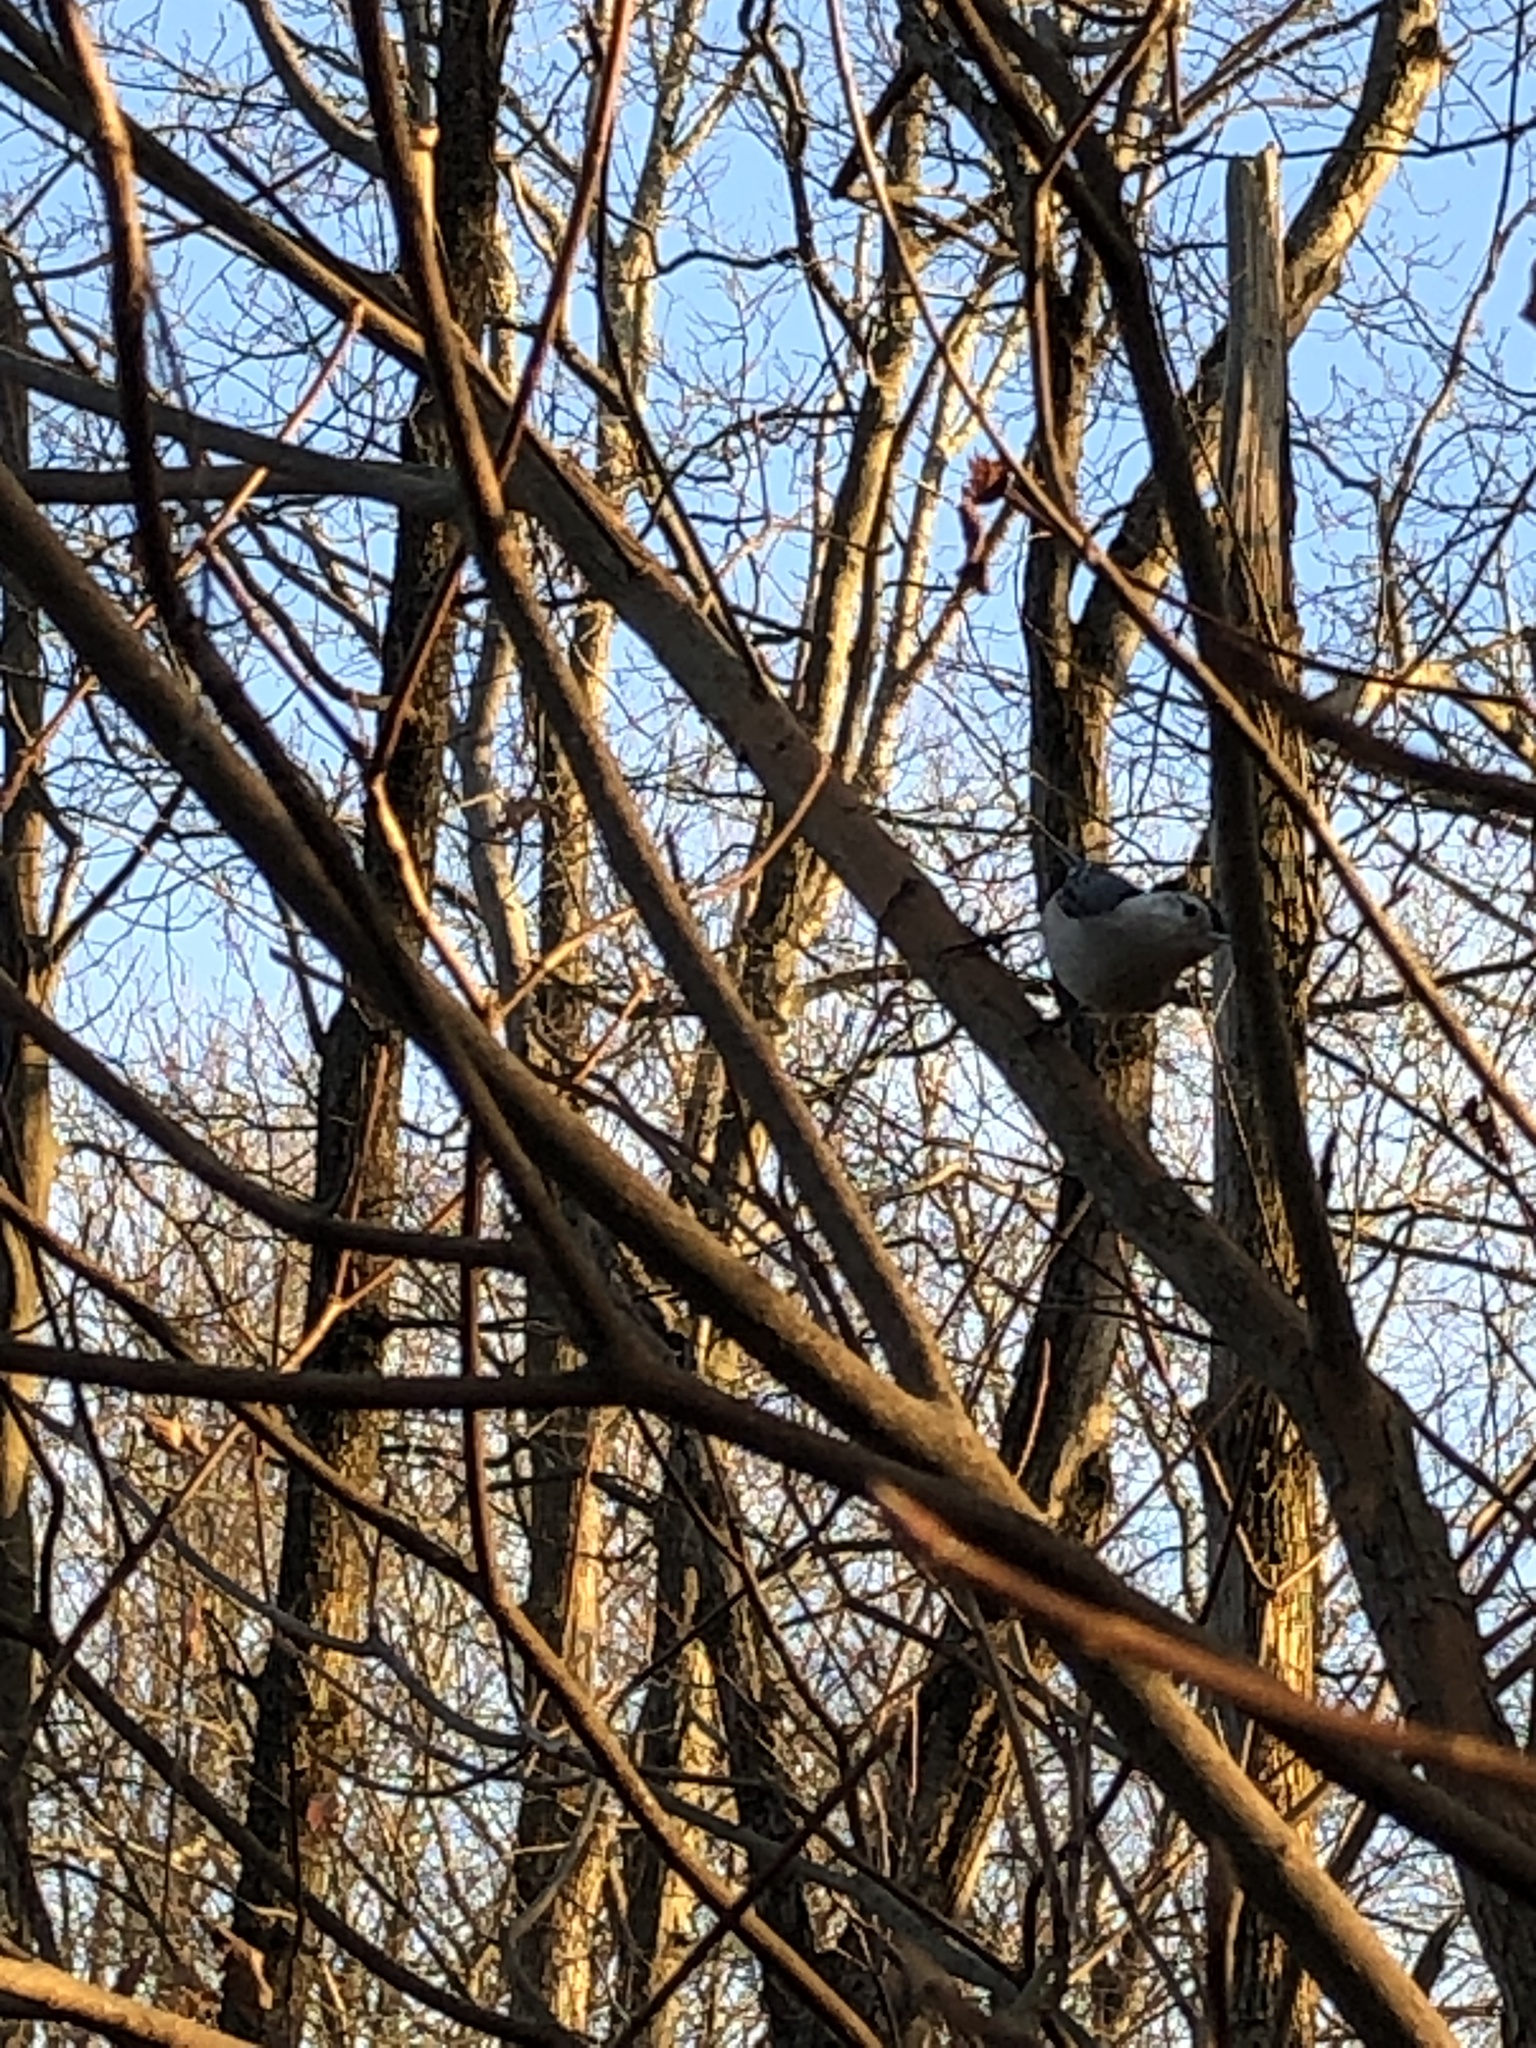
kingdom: Animalia
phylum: Chordata
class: Aves
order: Passeriformes
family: Sittidae
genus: Sitta
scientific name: Sitta carolinensis
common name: White-breasted nuthatch
